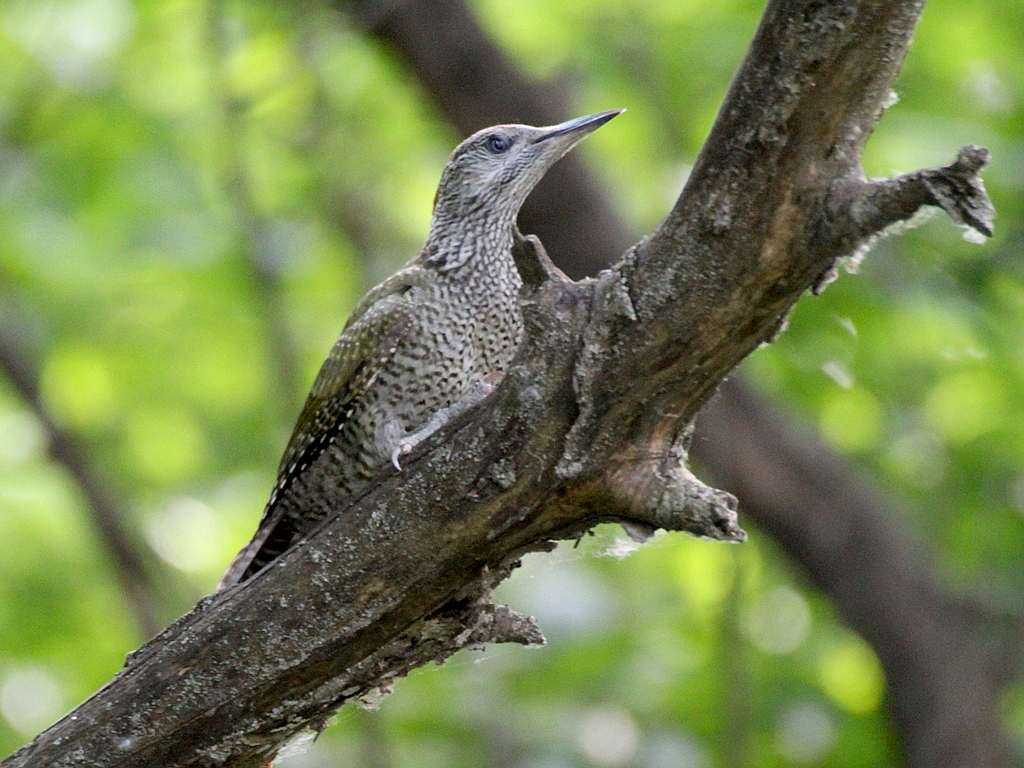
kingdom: Animalia
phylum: Chordata
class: Aves
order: Piciformes
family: Picidae
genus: Picus
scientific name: Picus viridis
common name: European green woodpecker
